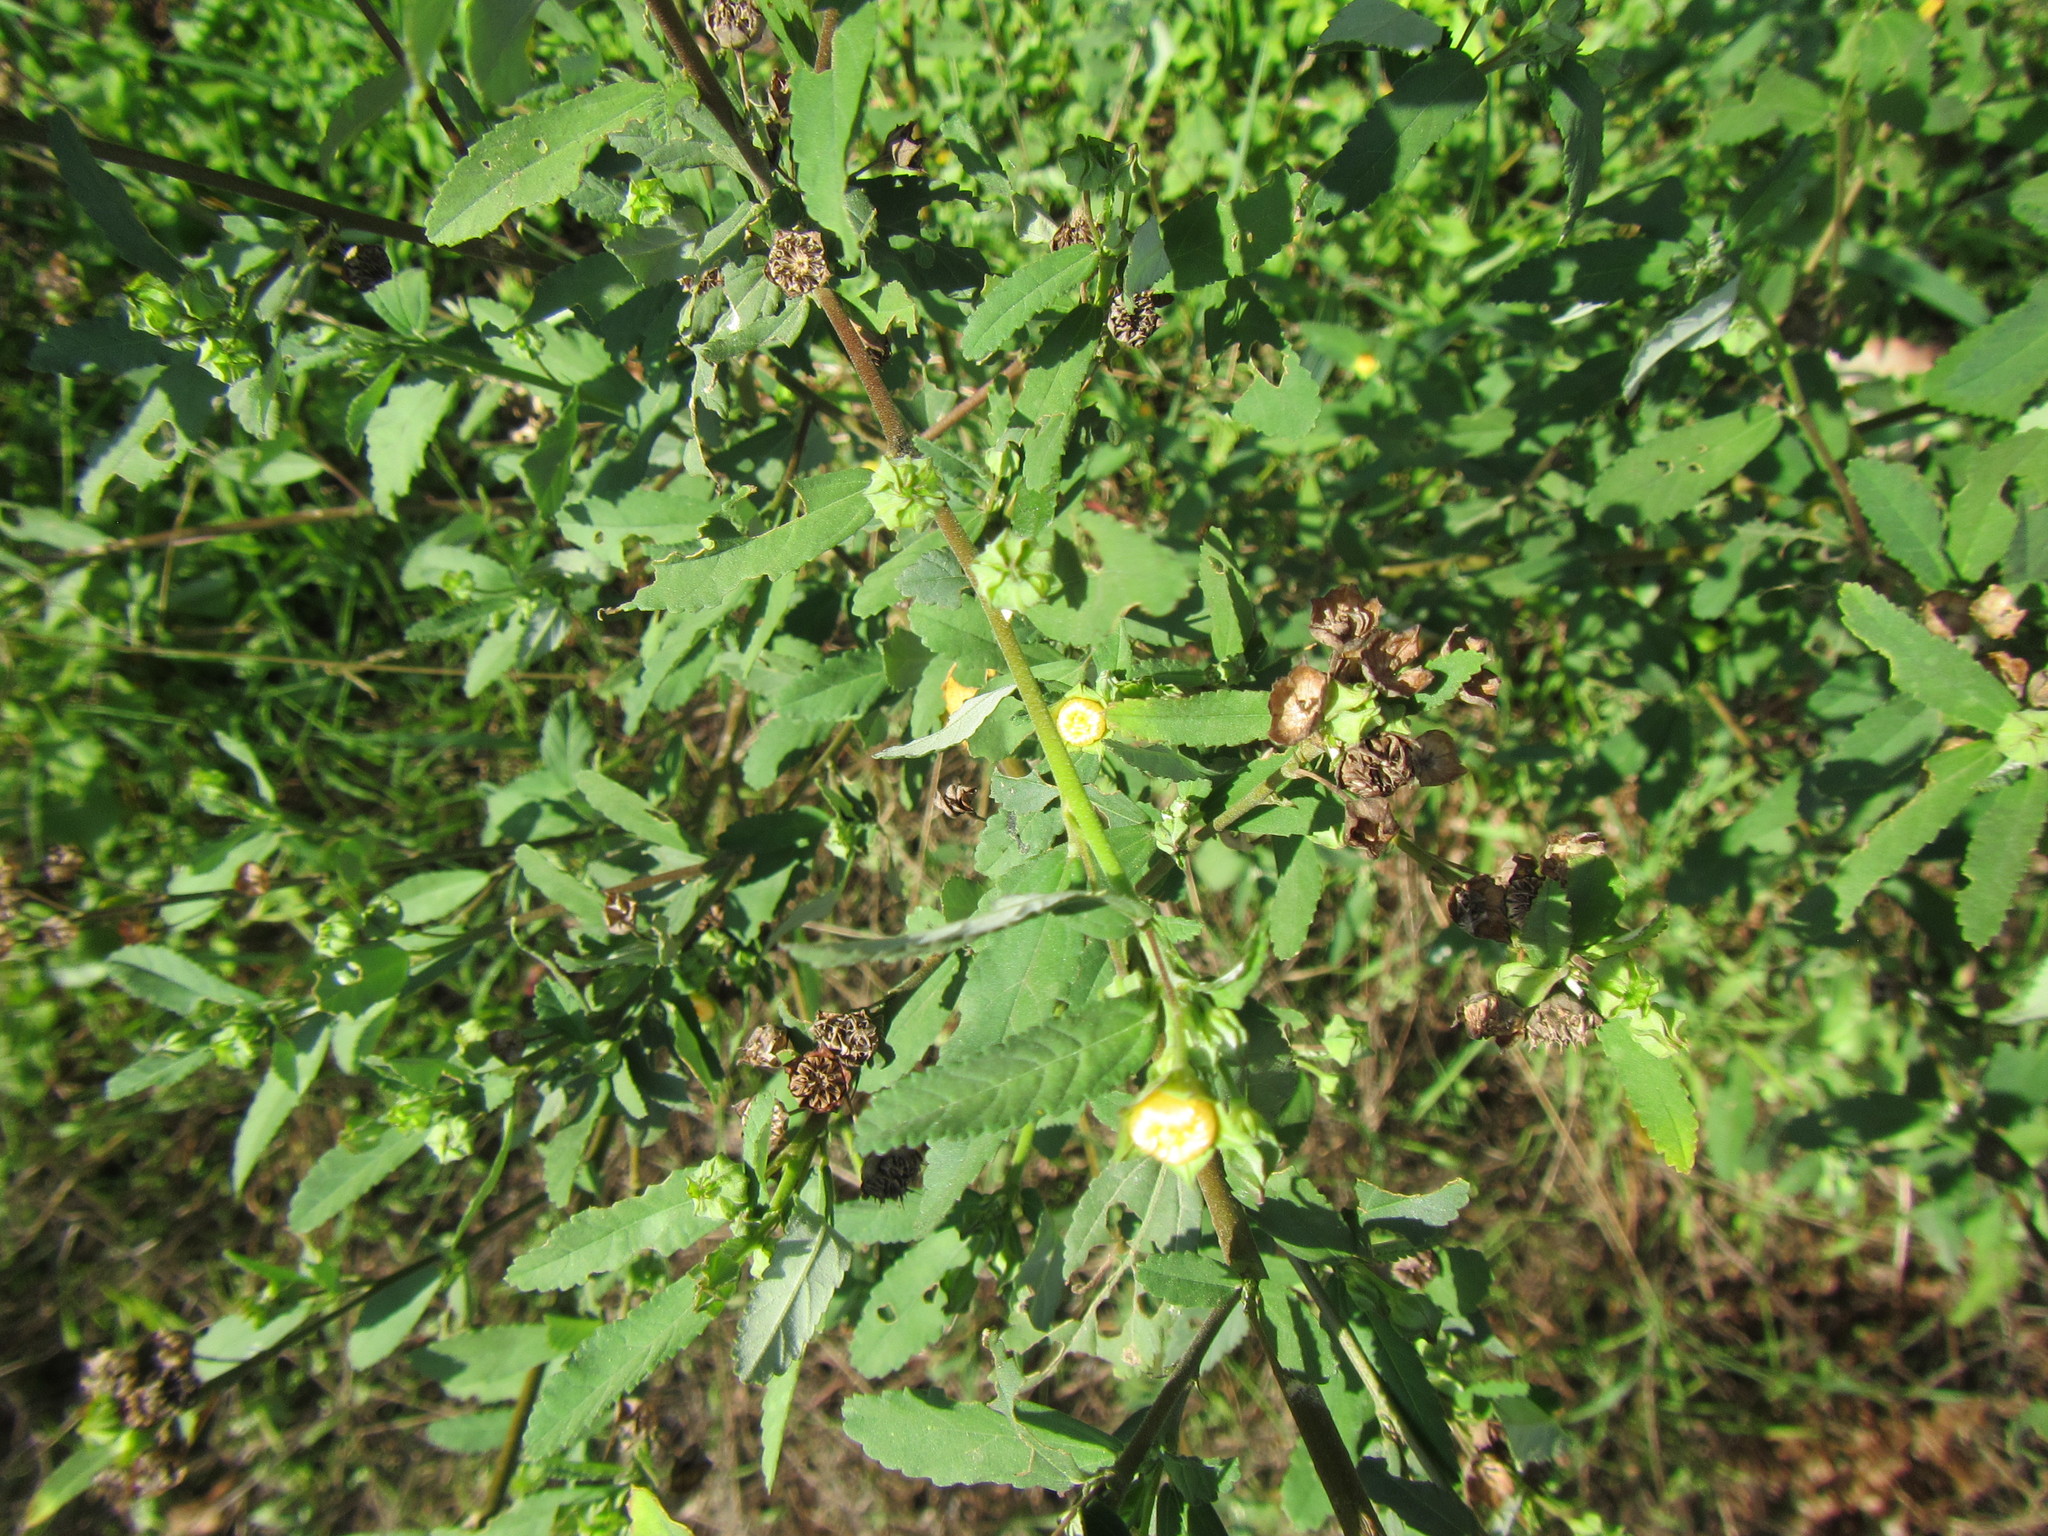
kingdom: Plantae
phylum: Tracheophyta
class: Magnoliopsida
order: Malvales
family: Malvaceae
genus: Sida
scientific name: Sida rhombifolia
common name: Queensland-hemp
